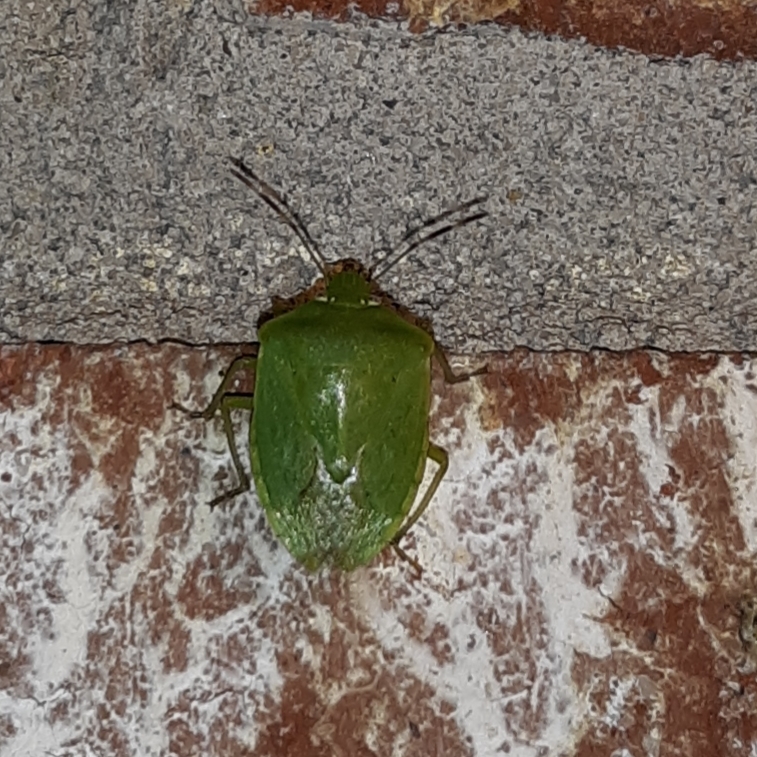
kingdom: Animalia
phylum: Arthropoda
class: Insecta
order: Hemiptera
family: Pentatomidae
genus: Nezara
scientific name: Nezara viridula
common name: Southern green stink bug
